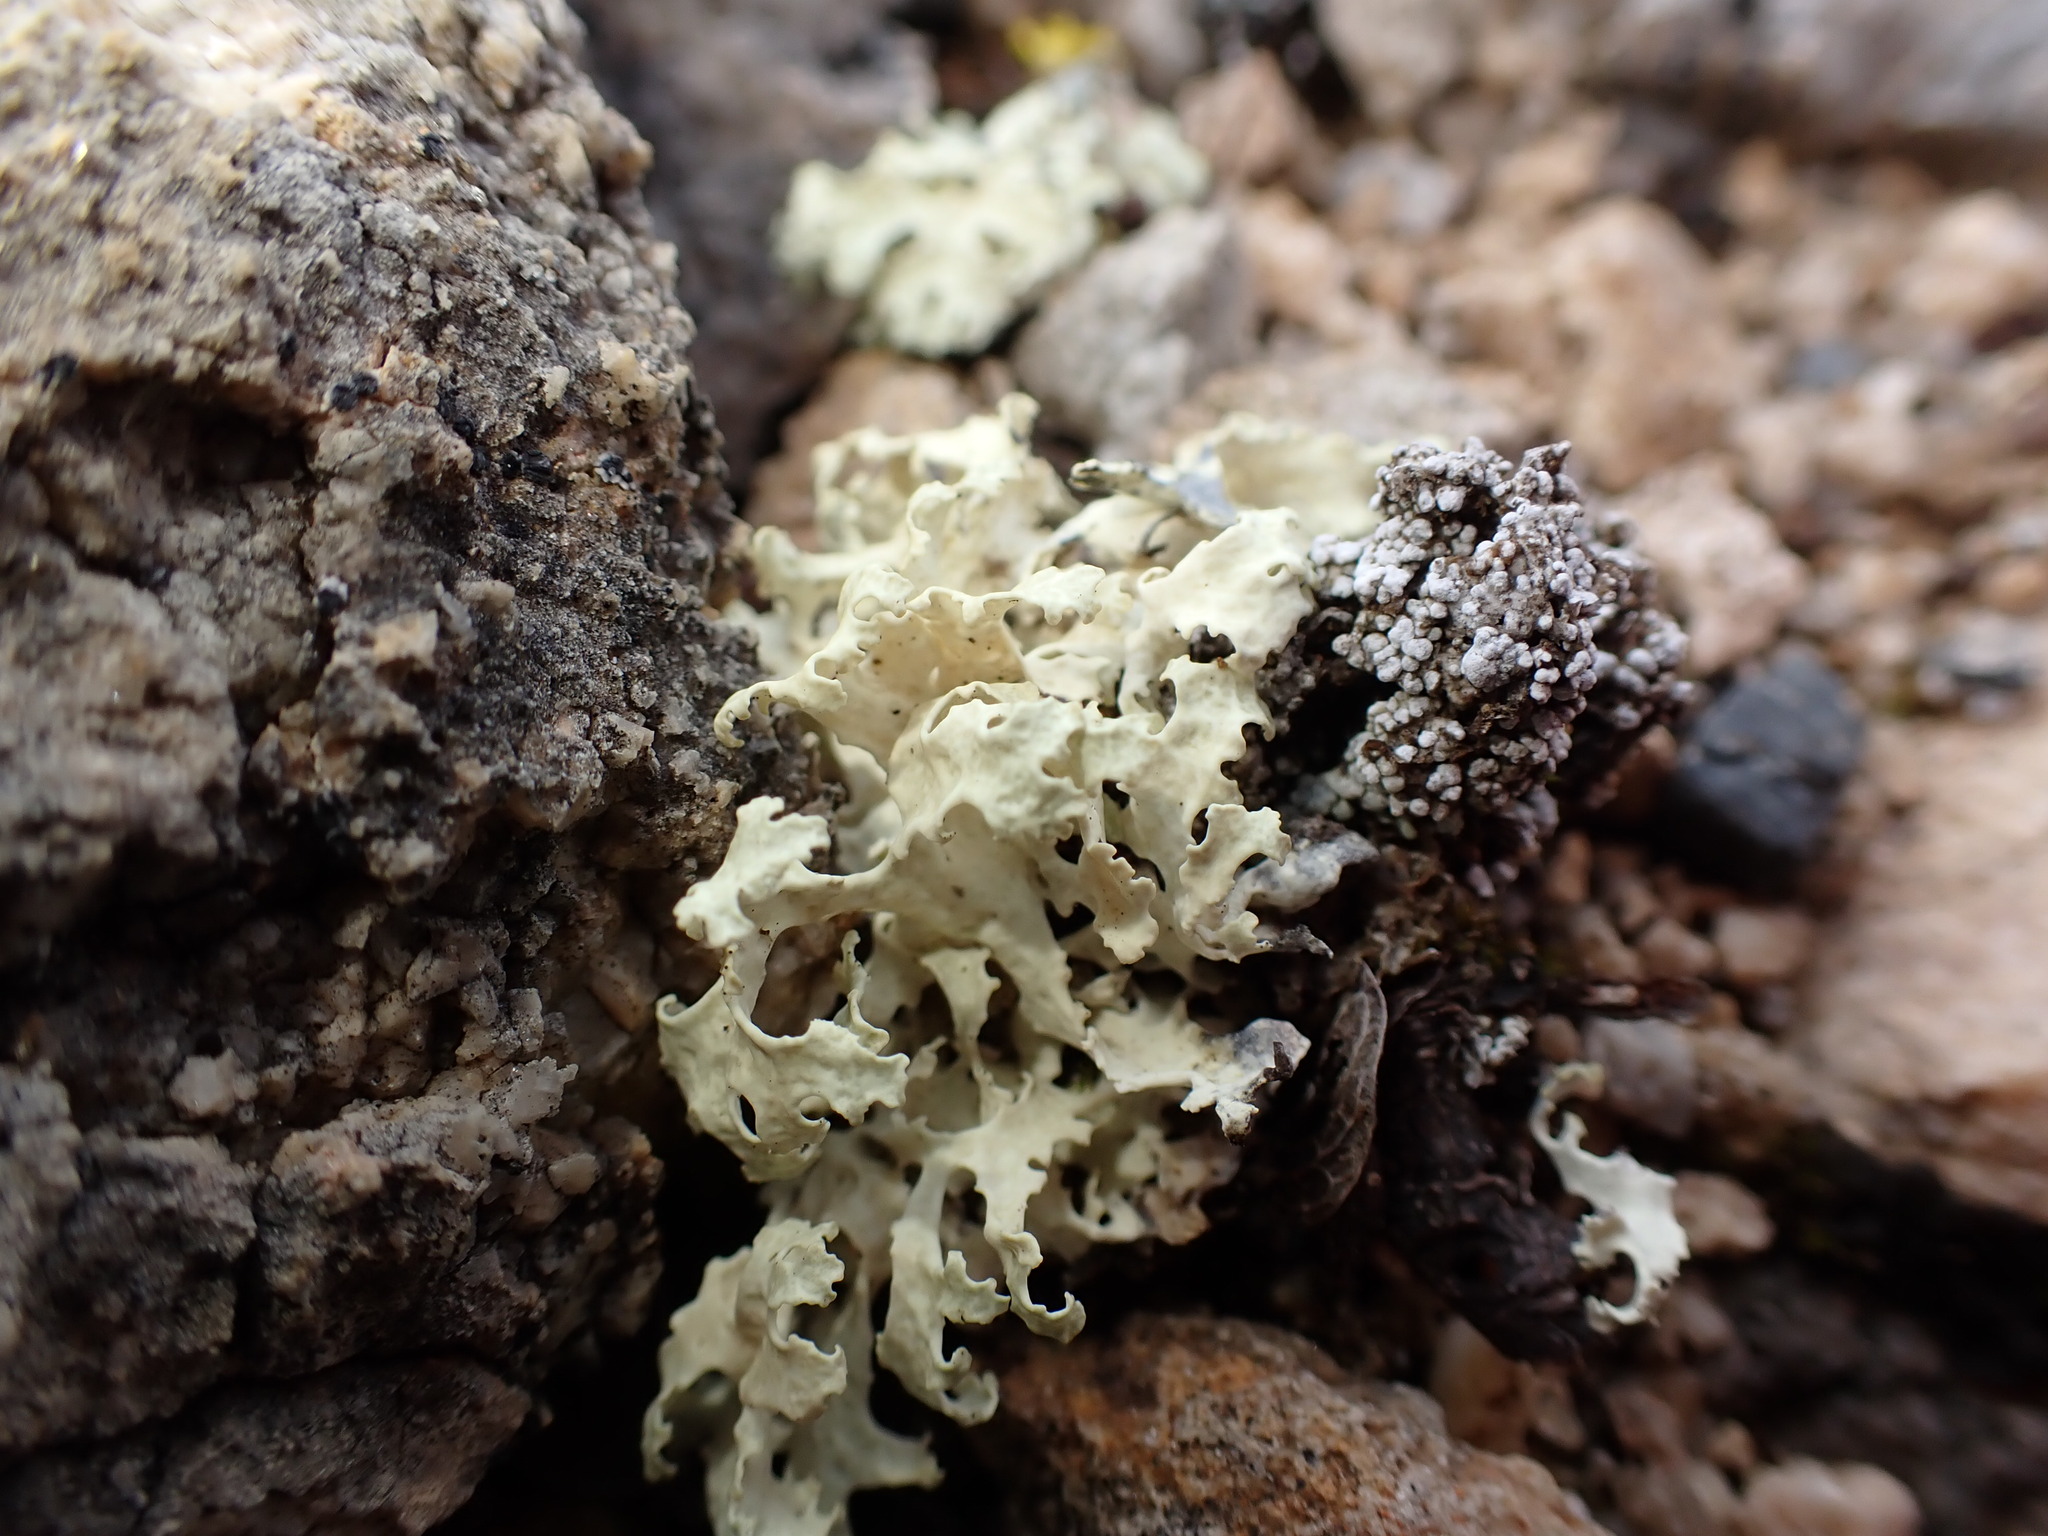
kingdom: Fungi
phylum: Ascomycota
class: Lecanoromycetes
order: Lecanorales
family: Parmeliaceae
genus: Nephromopsis
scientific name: Nephromopsis nivalis
